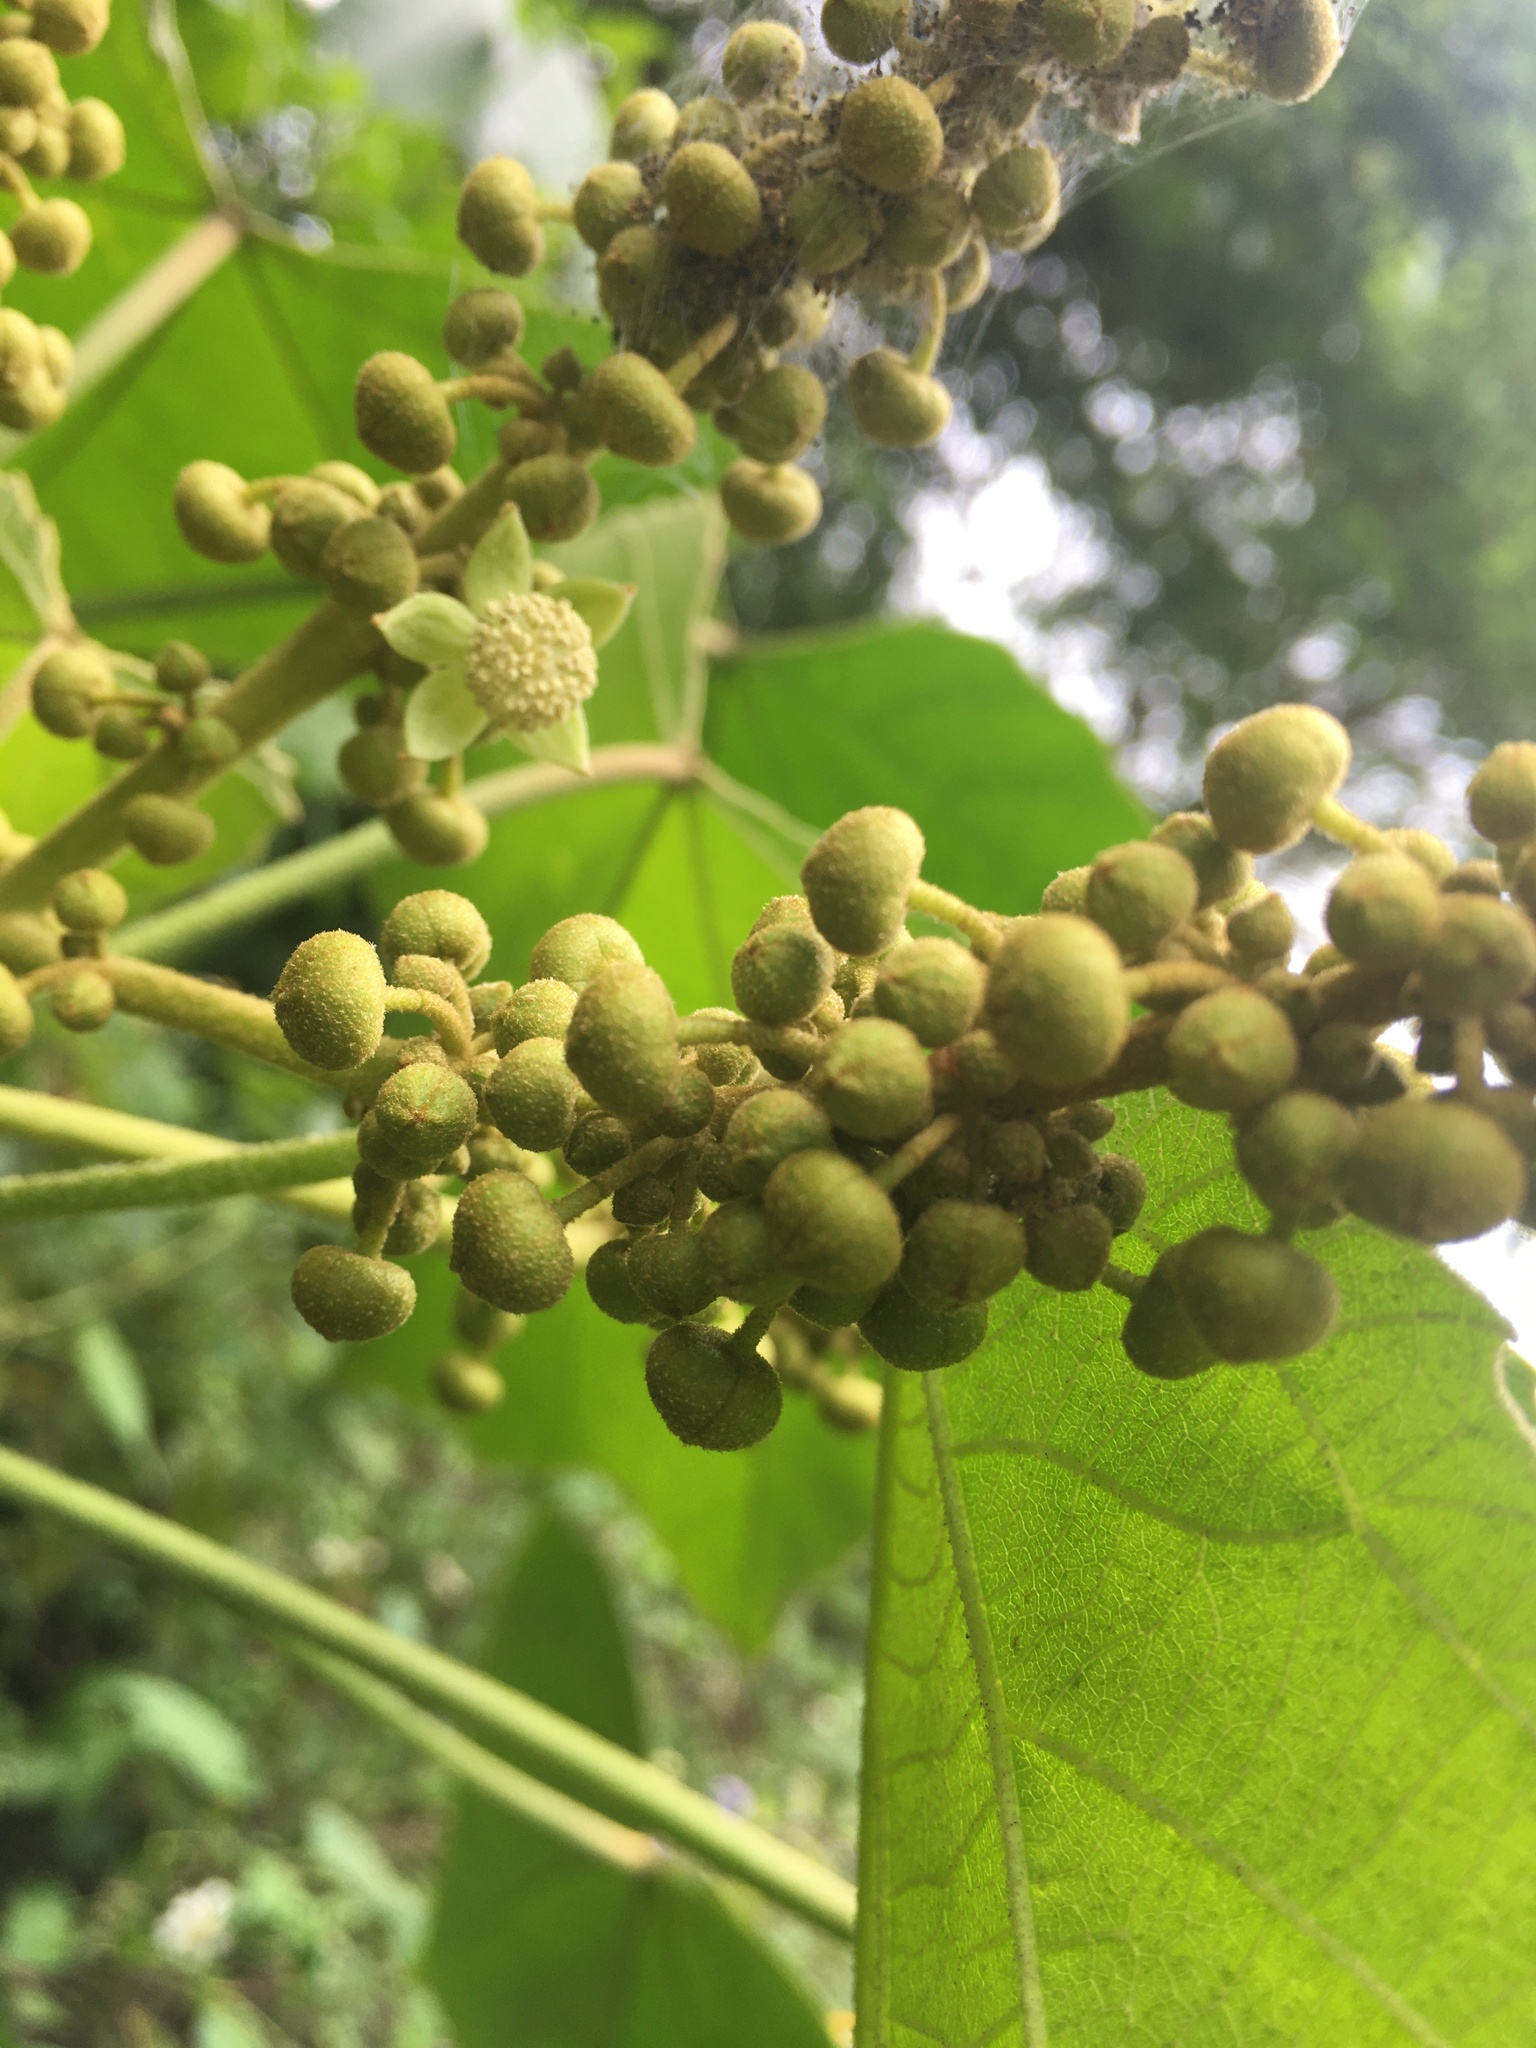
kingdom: Plantae
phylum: Tracheophyta
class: Magnoliopsida
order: Malpighiales
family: Euphorbiaceae
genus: Mallotus
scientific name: Mallotus japonicus
